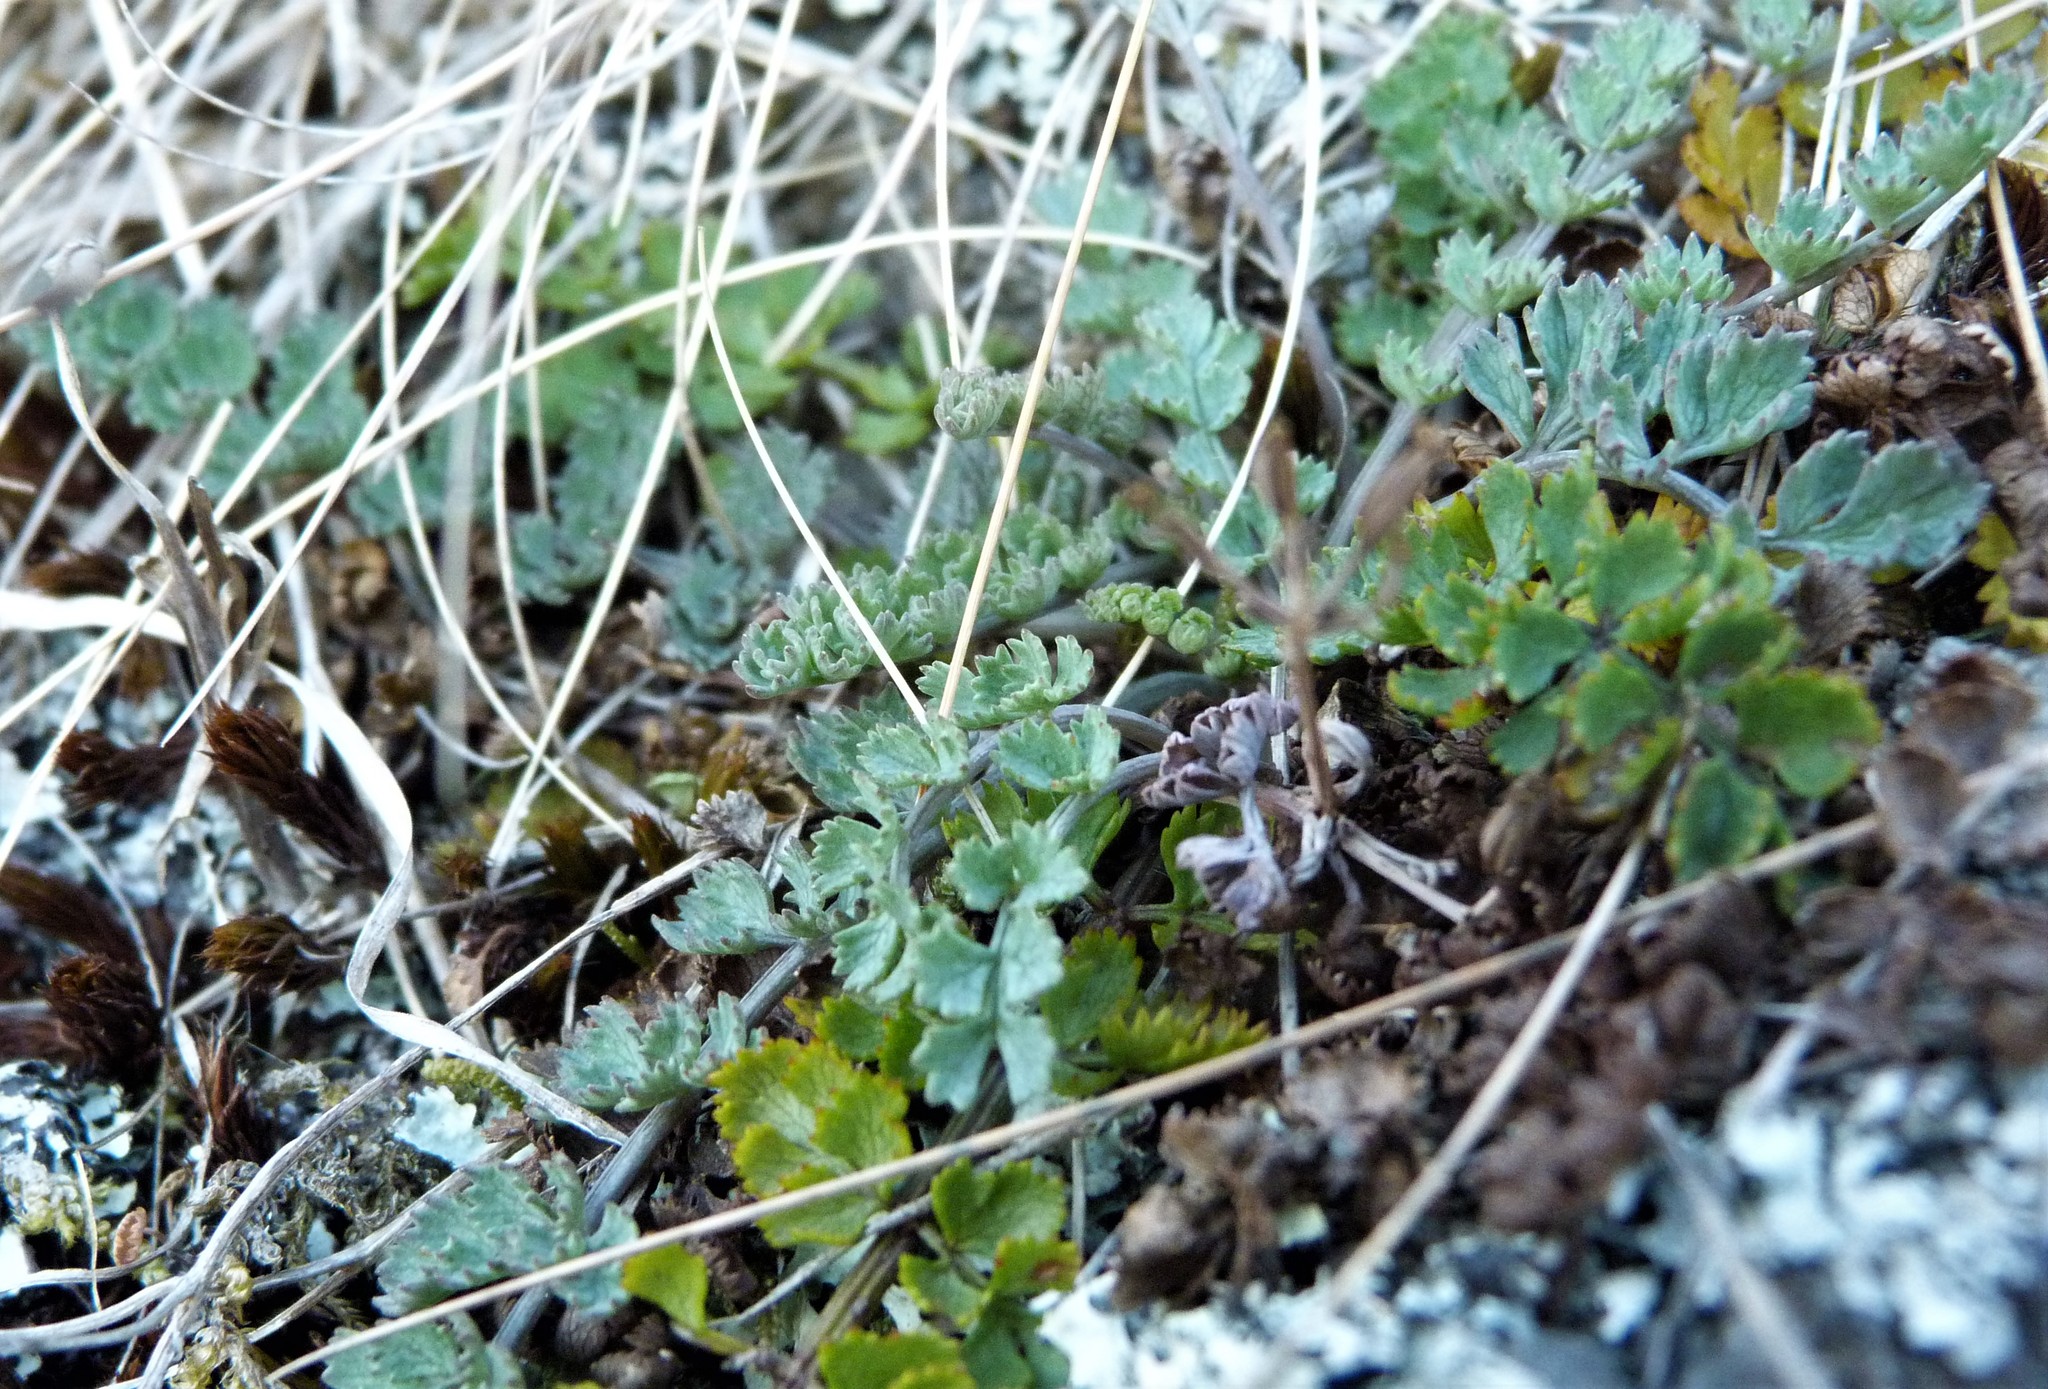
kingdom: Plantae
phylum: Tracheophyta
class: Magnoliopsida
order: Apiales
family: Apiaceae
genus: Gingidia
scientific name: Gingidia enysii
